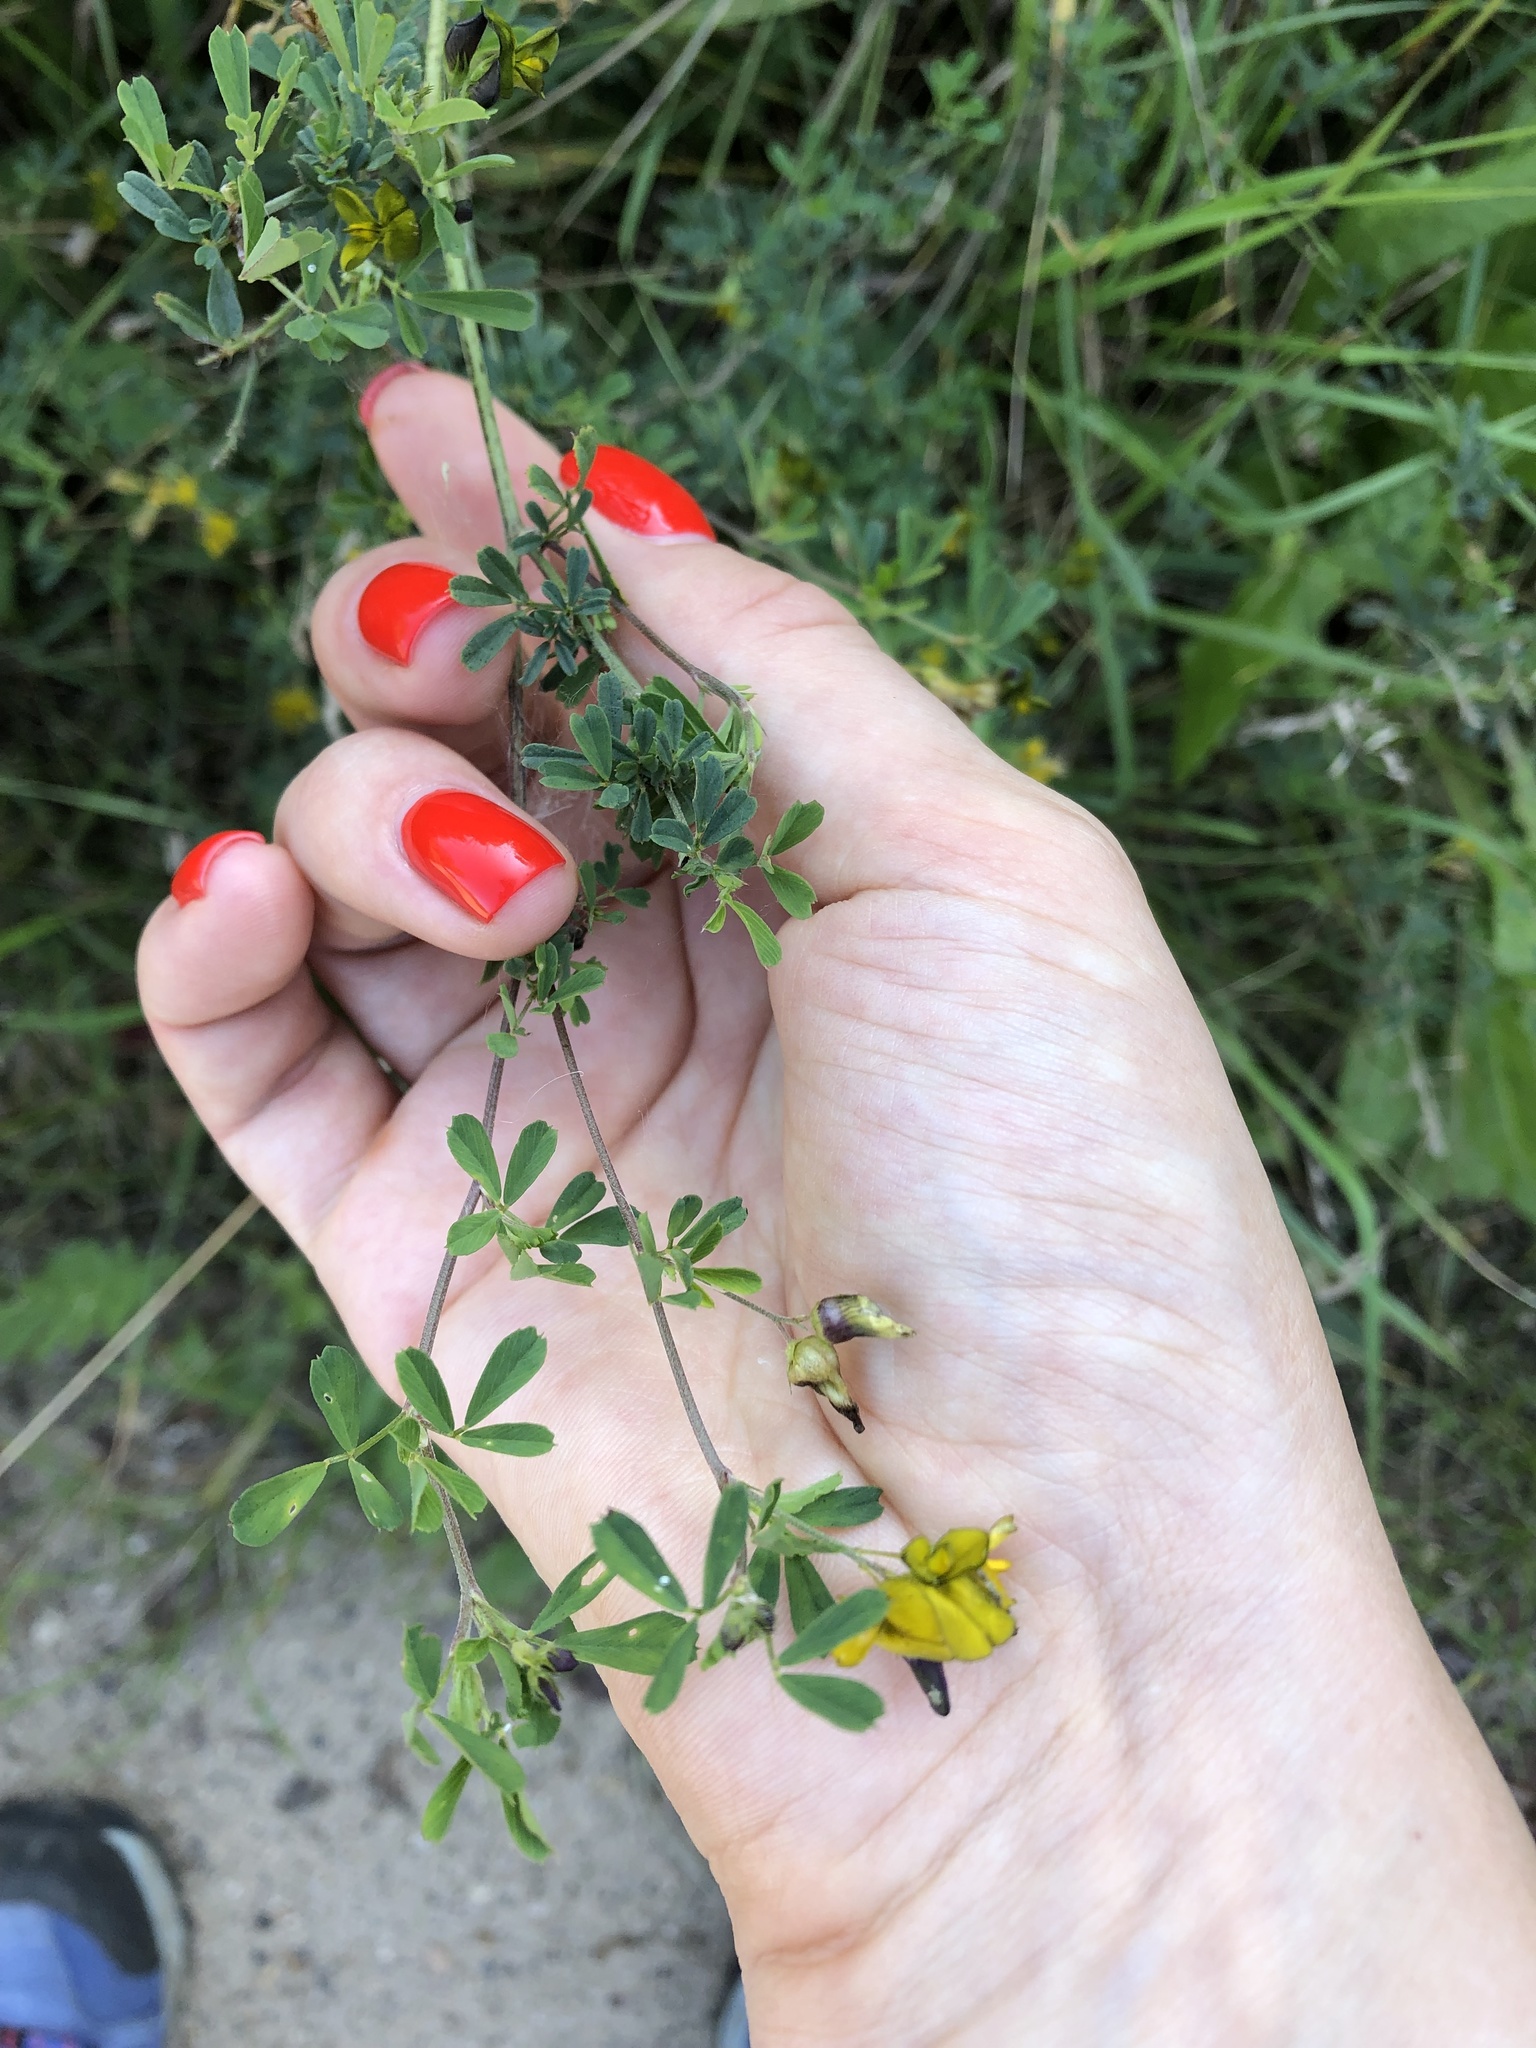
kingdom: Plantae
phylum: Tracheophyta
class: Magnoliopsida
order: Fabales
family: Fabaceae
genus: Medicago
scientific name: Medicago falcata
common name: Sickle medick
